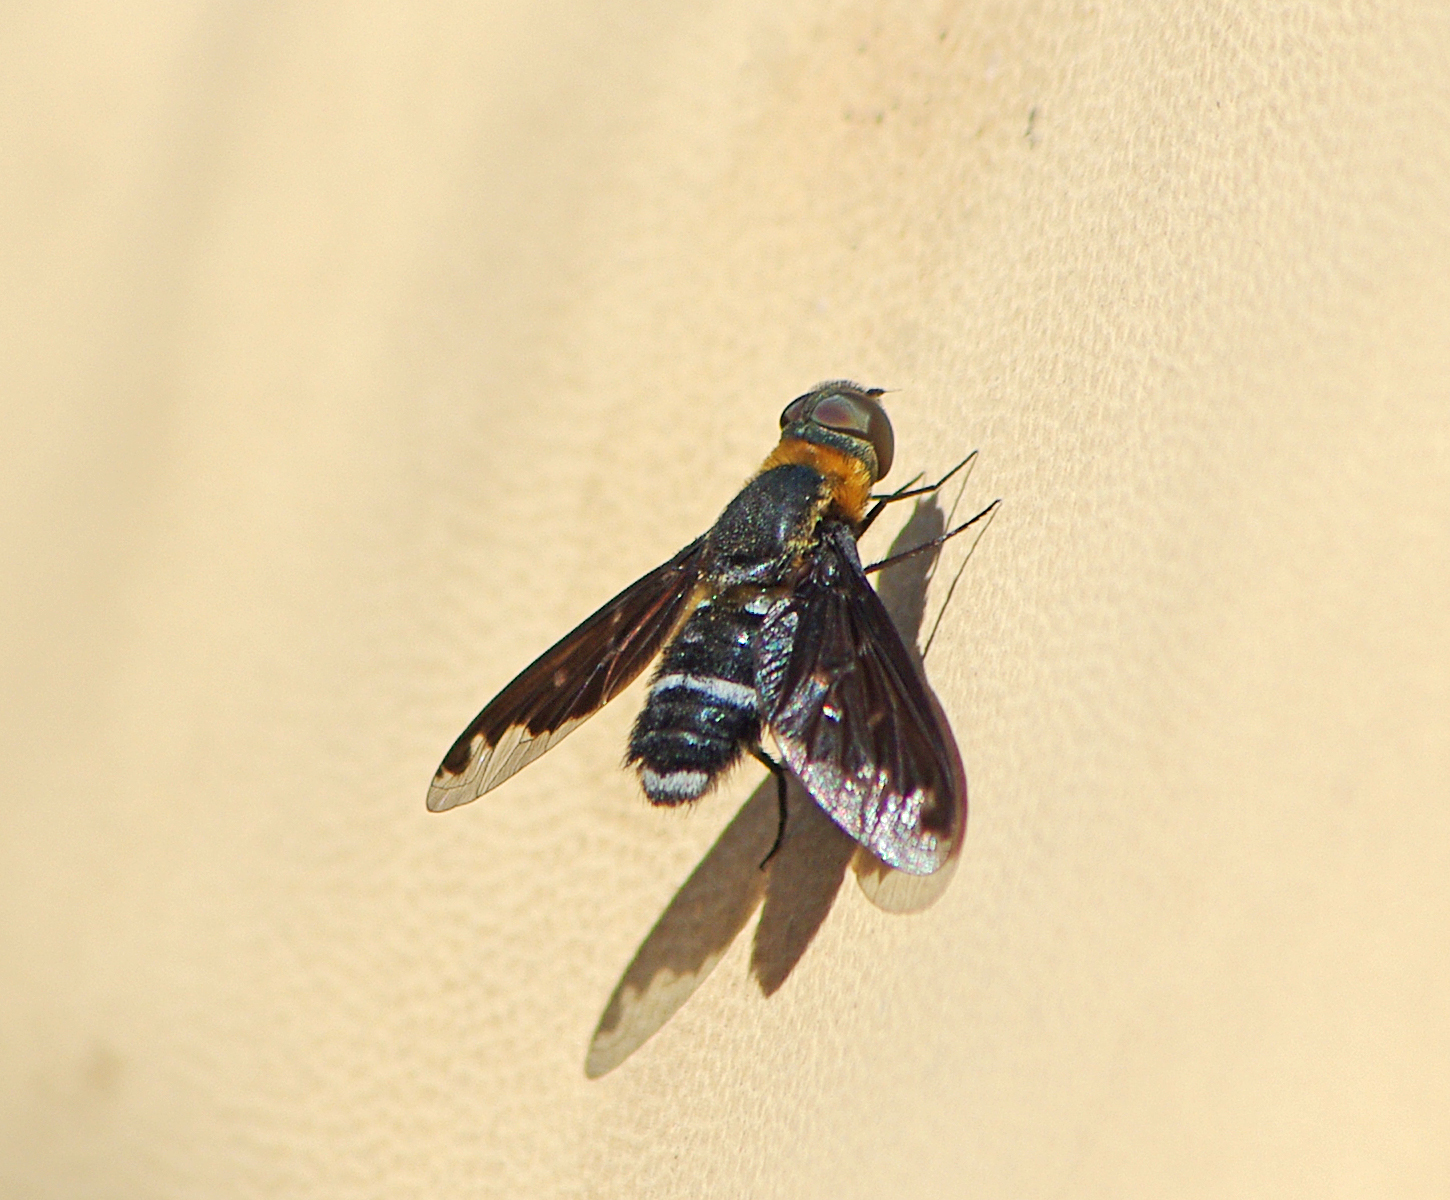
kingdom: Animalia
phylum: Arthropoda
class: Insecta
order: Diptera
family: Bombyliidae
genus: Hemipenthes
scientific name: Hemipenthes velutina
